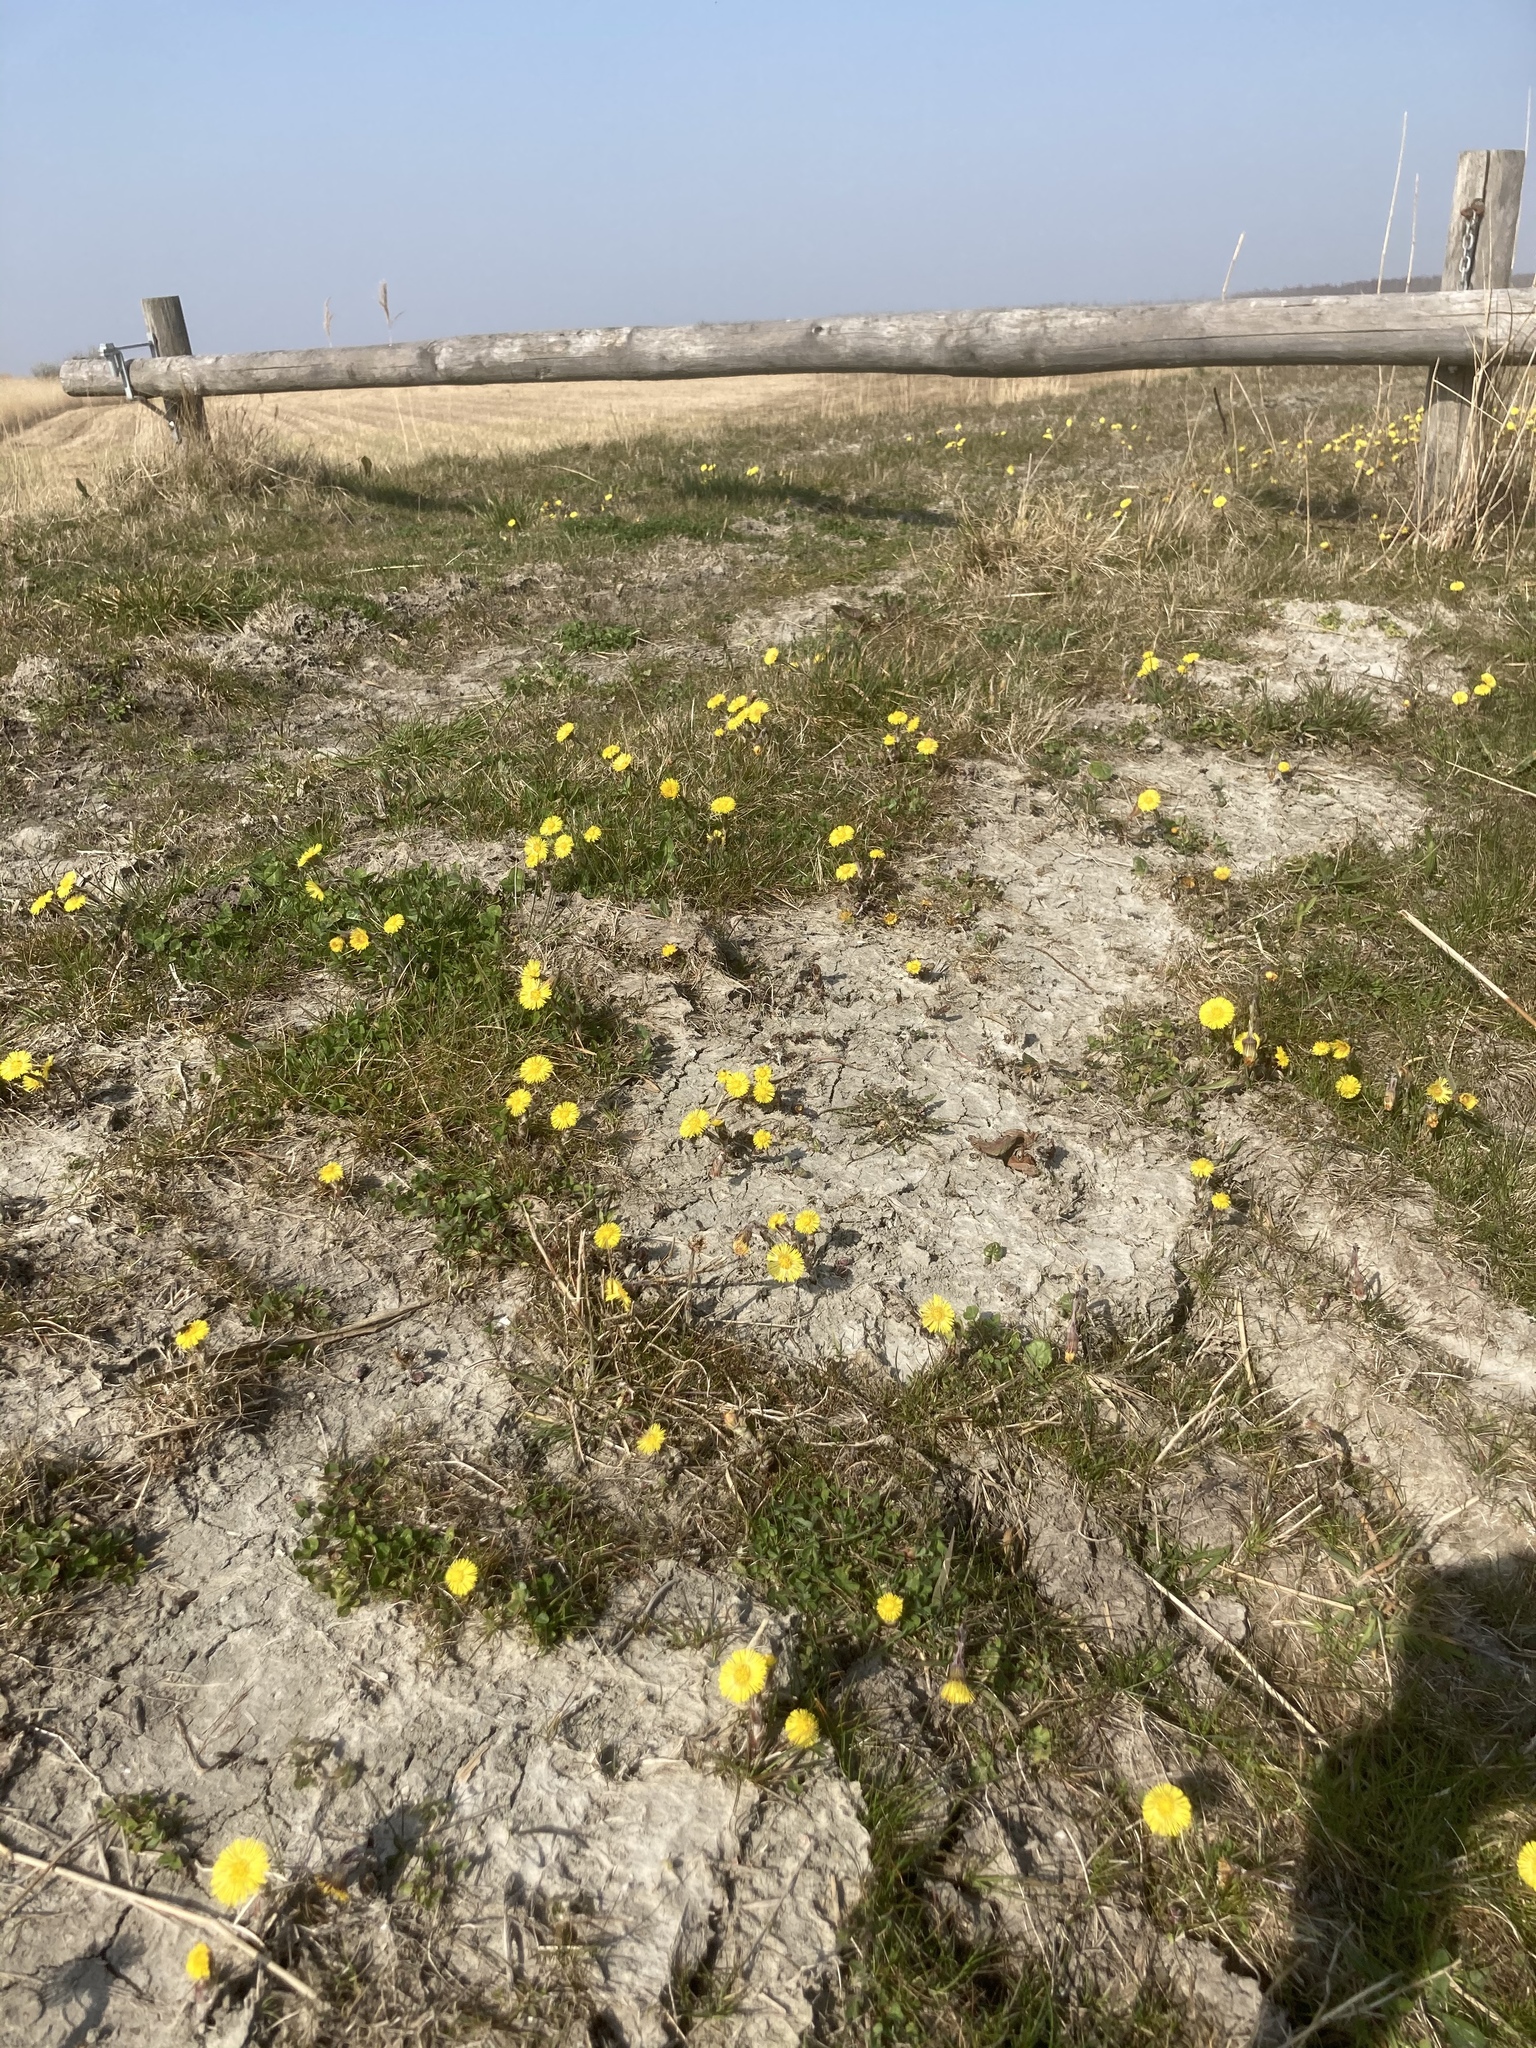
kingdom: Plantae
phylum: Tracheophyta
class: Magnoliopsida
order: Asterales
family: Asteraceae
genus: Tussilago
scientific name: Tussilago farfara
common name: Coltsfoot
